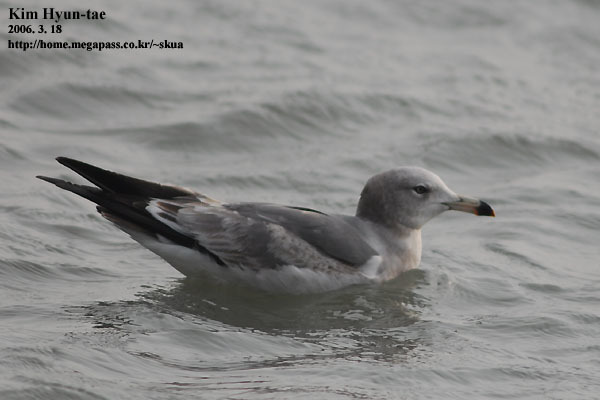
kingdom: Animalia
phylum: Chordata
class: Aves
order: Charadriiformes
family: Laridae
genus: Larus
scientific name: Larus crassirostris
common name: Black-tailed gull
